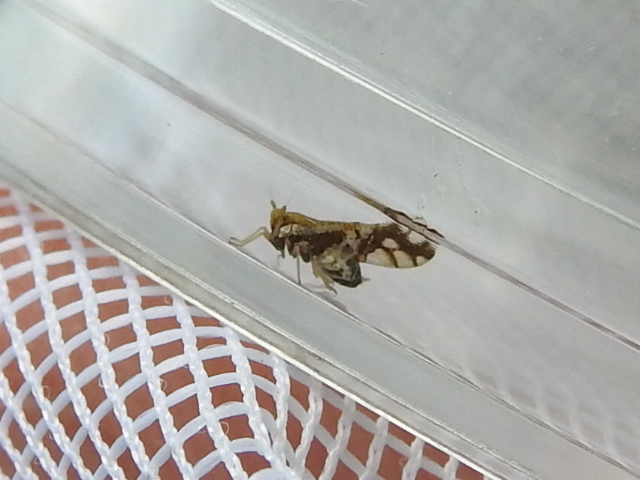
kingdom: Animalia
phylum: Arthropoda
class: Insecta
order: Hemiptera
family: Delphacidae
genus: Liburniella
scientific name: Liburniella ornata
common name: Ornate planthopper
